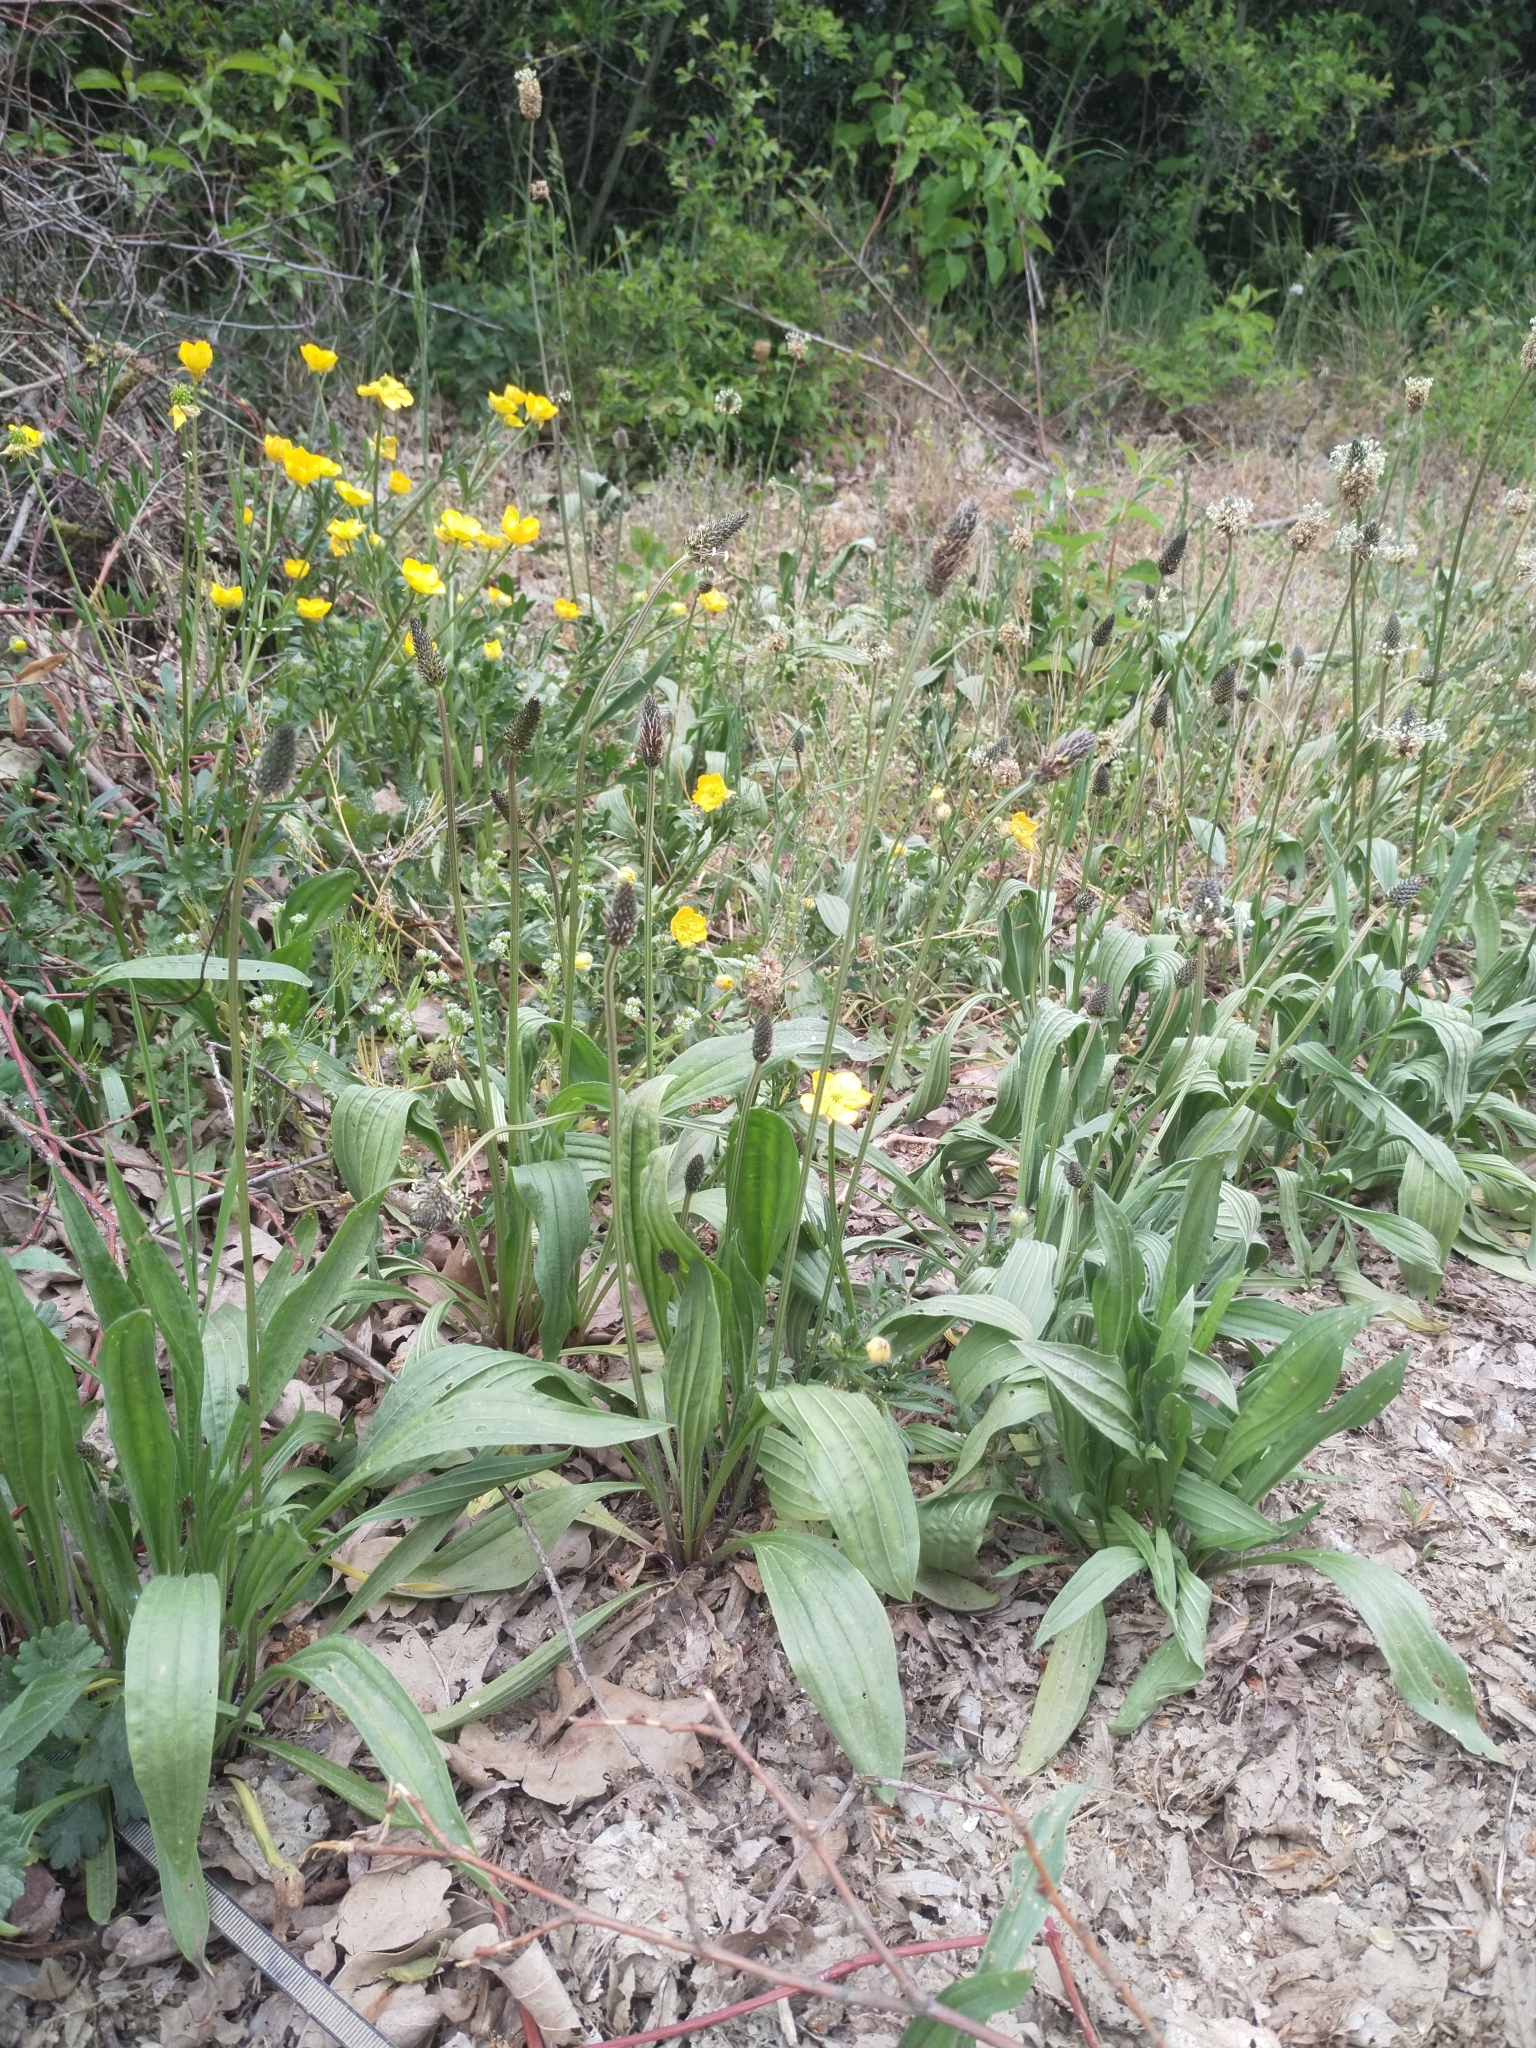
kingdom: Plantae
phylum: Tracheophyta
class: Magnoliopsida
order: Lamiales
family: Plantaginaceae
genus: Plantago
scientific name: Plantago lanceolata
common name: Ribwort plantain
